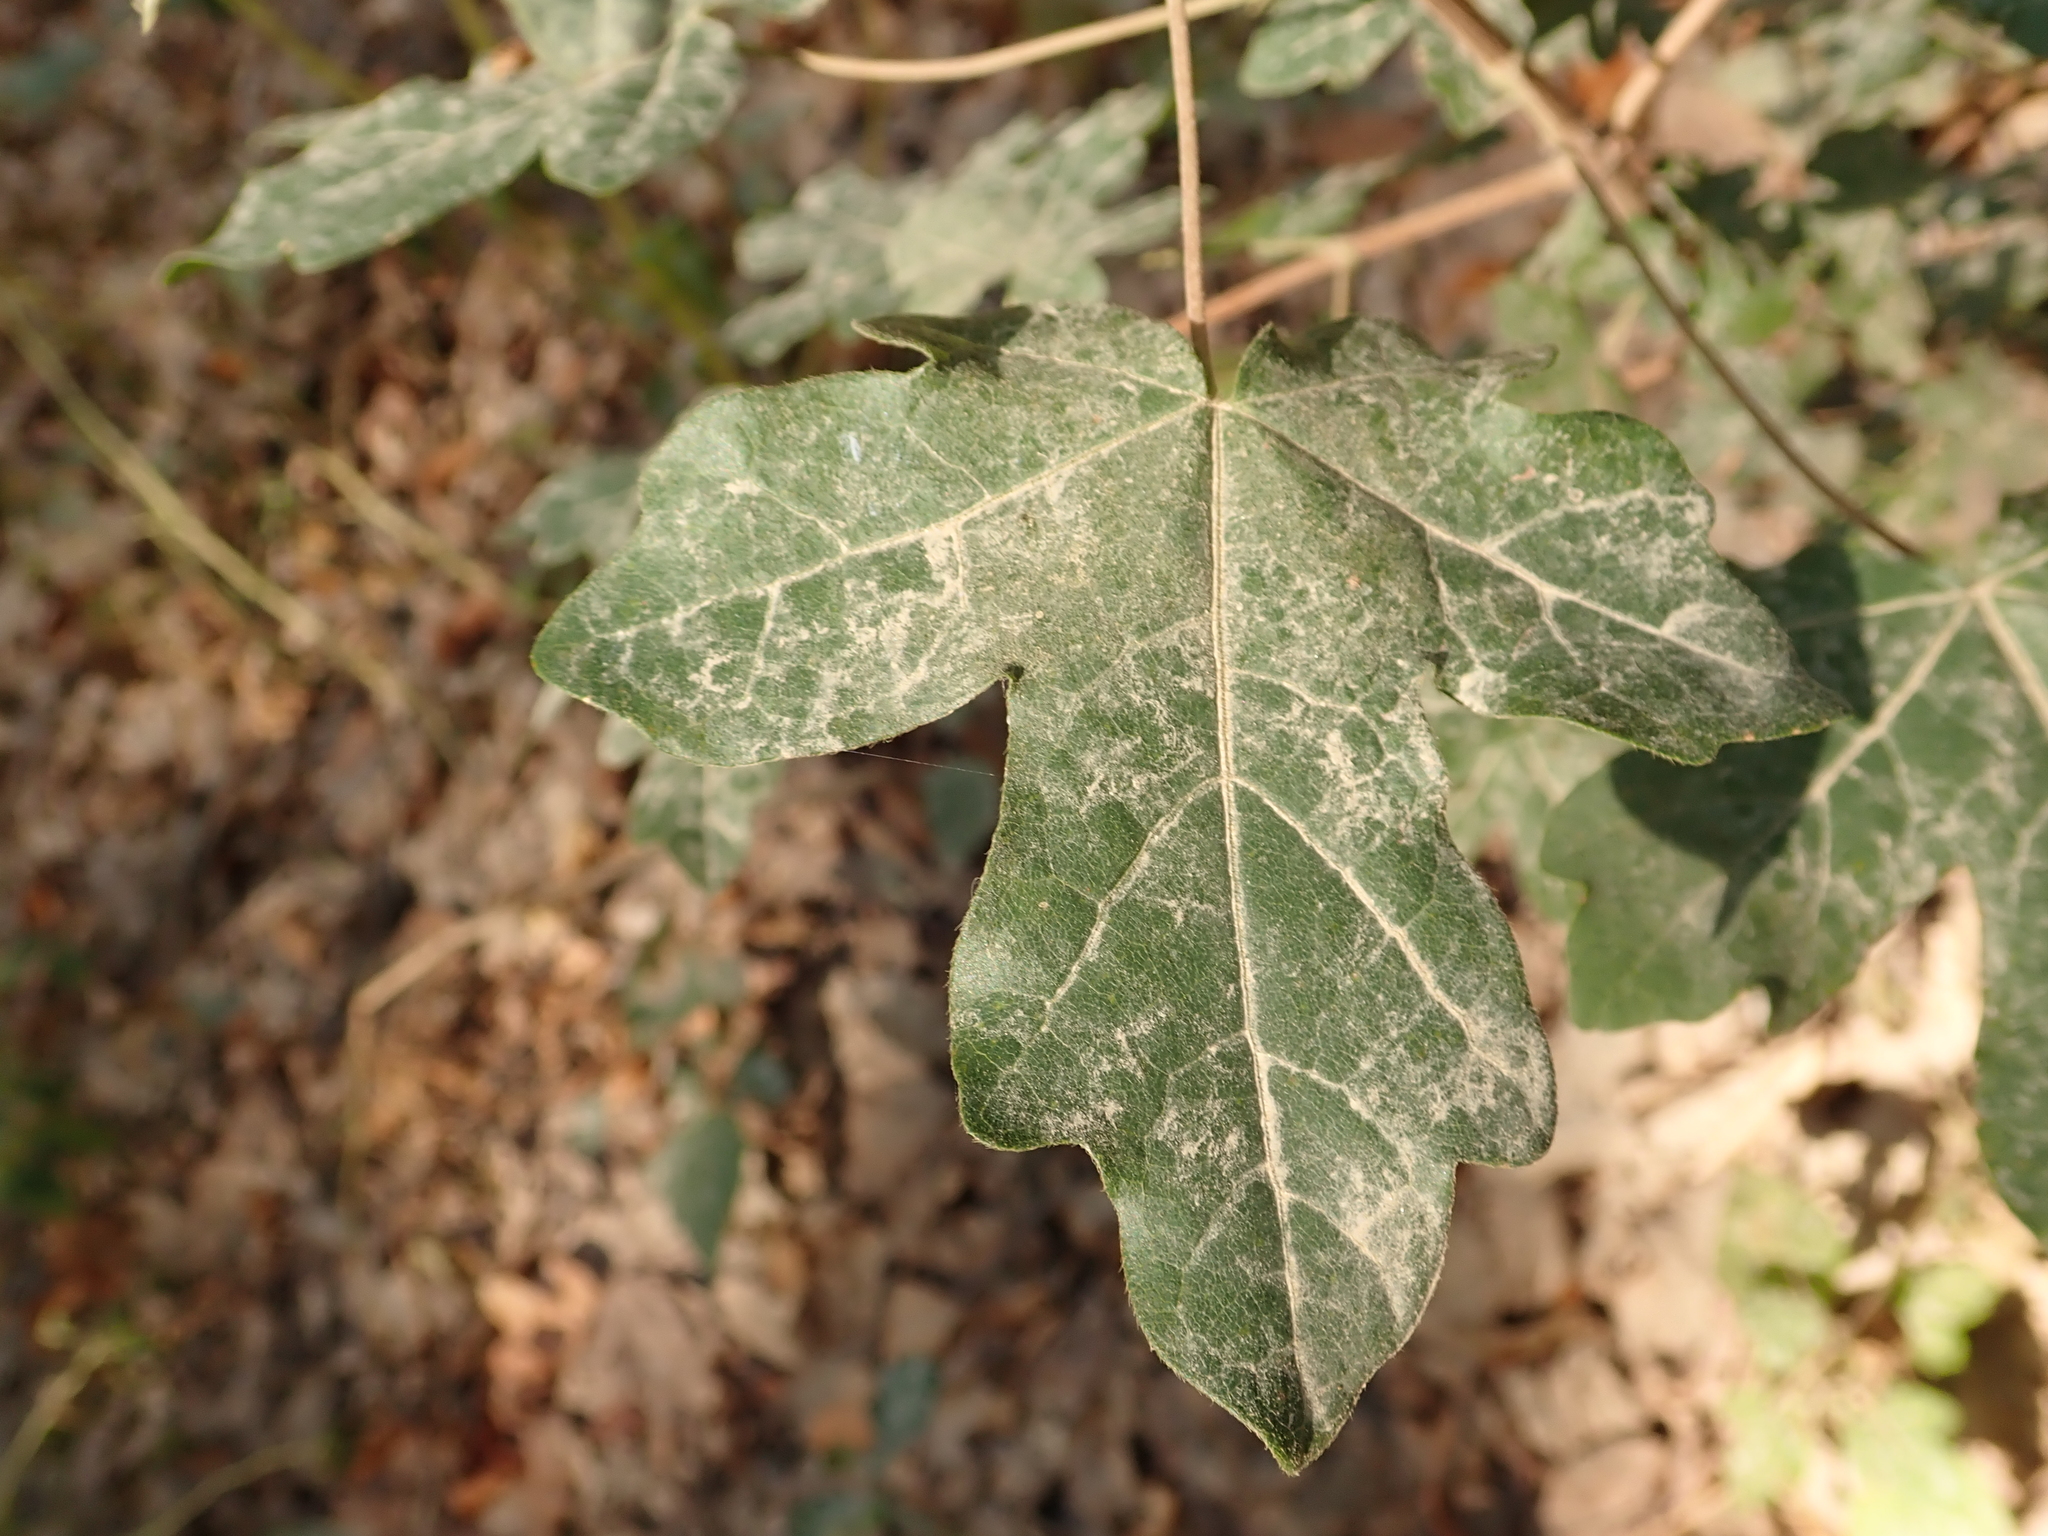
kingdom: Plantae
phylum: Tracheophyta
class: Magnoliopsida
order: Sapindales
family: Sapindaceae
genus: Acer
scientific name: Acer campestre
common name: Field maple
